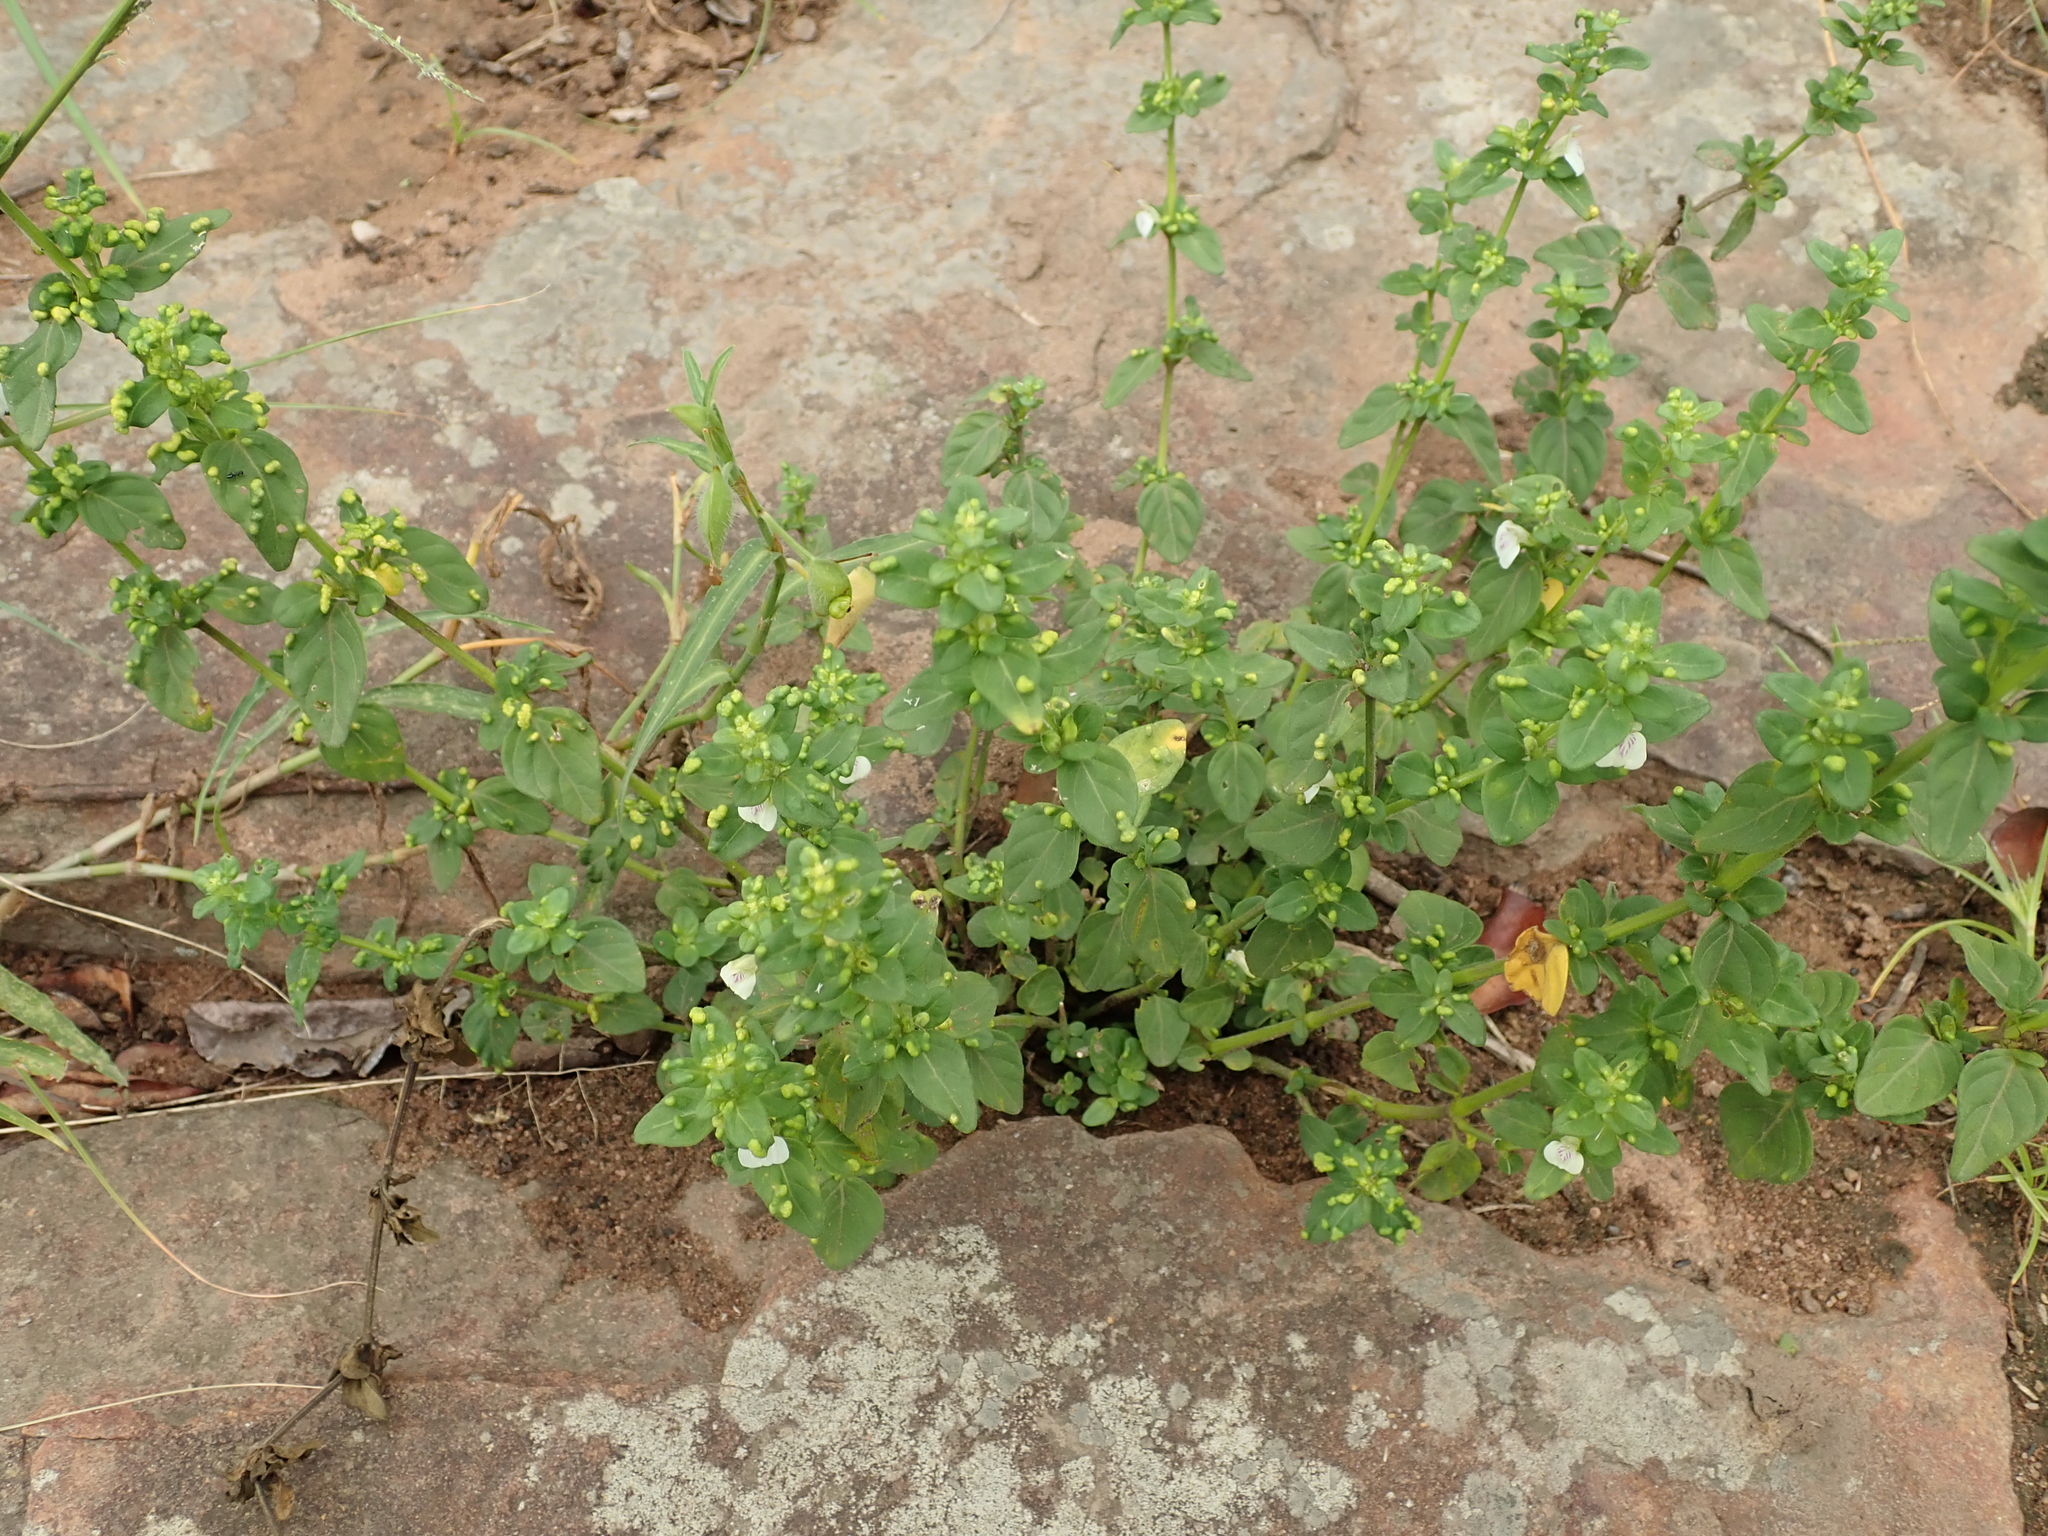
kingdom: Plantae
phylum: Tracheophyta
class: Magnoliopsida
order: Lamiales
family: Acanthaceae
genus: Justicia
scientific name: Justicia protracta
